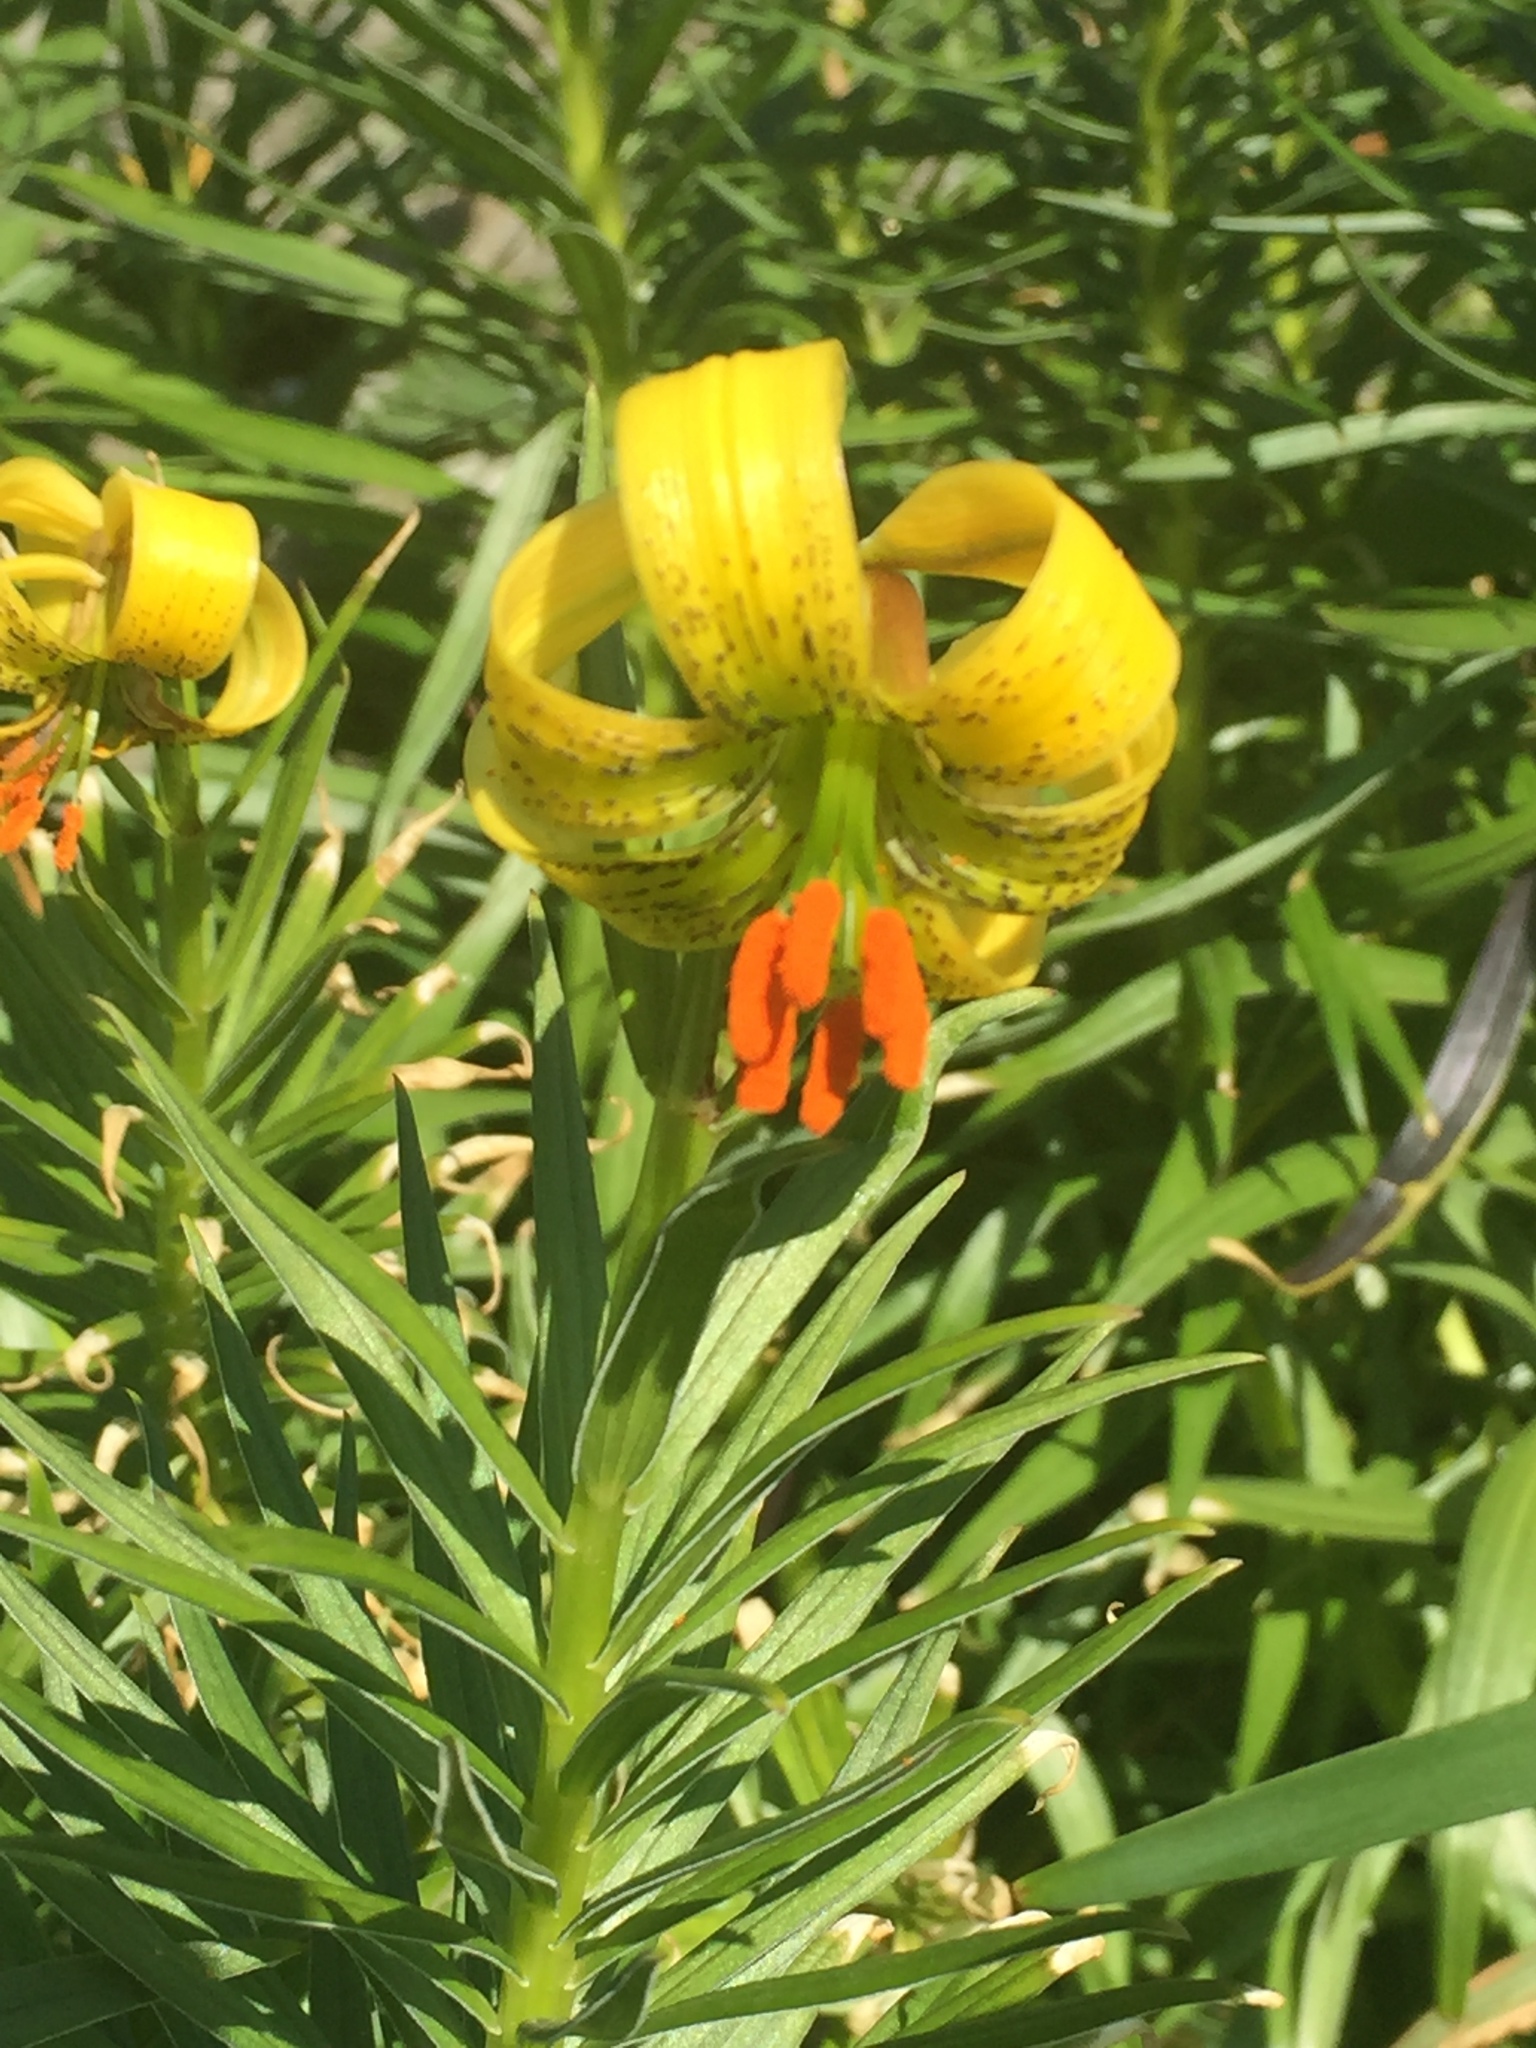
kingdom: Plantae
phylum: Tracheophyta
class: Liliopsida
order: Liliales
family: Liliaceae
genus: Lilium
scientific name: Lilium pyrenaicum
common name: Pyrenean lily
